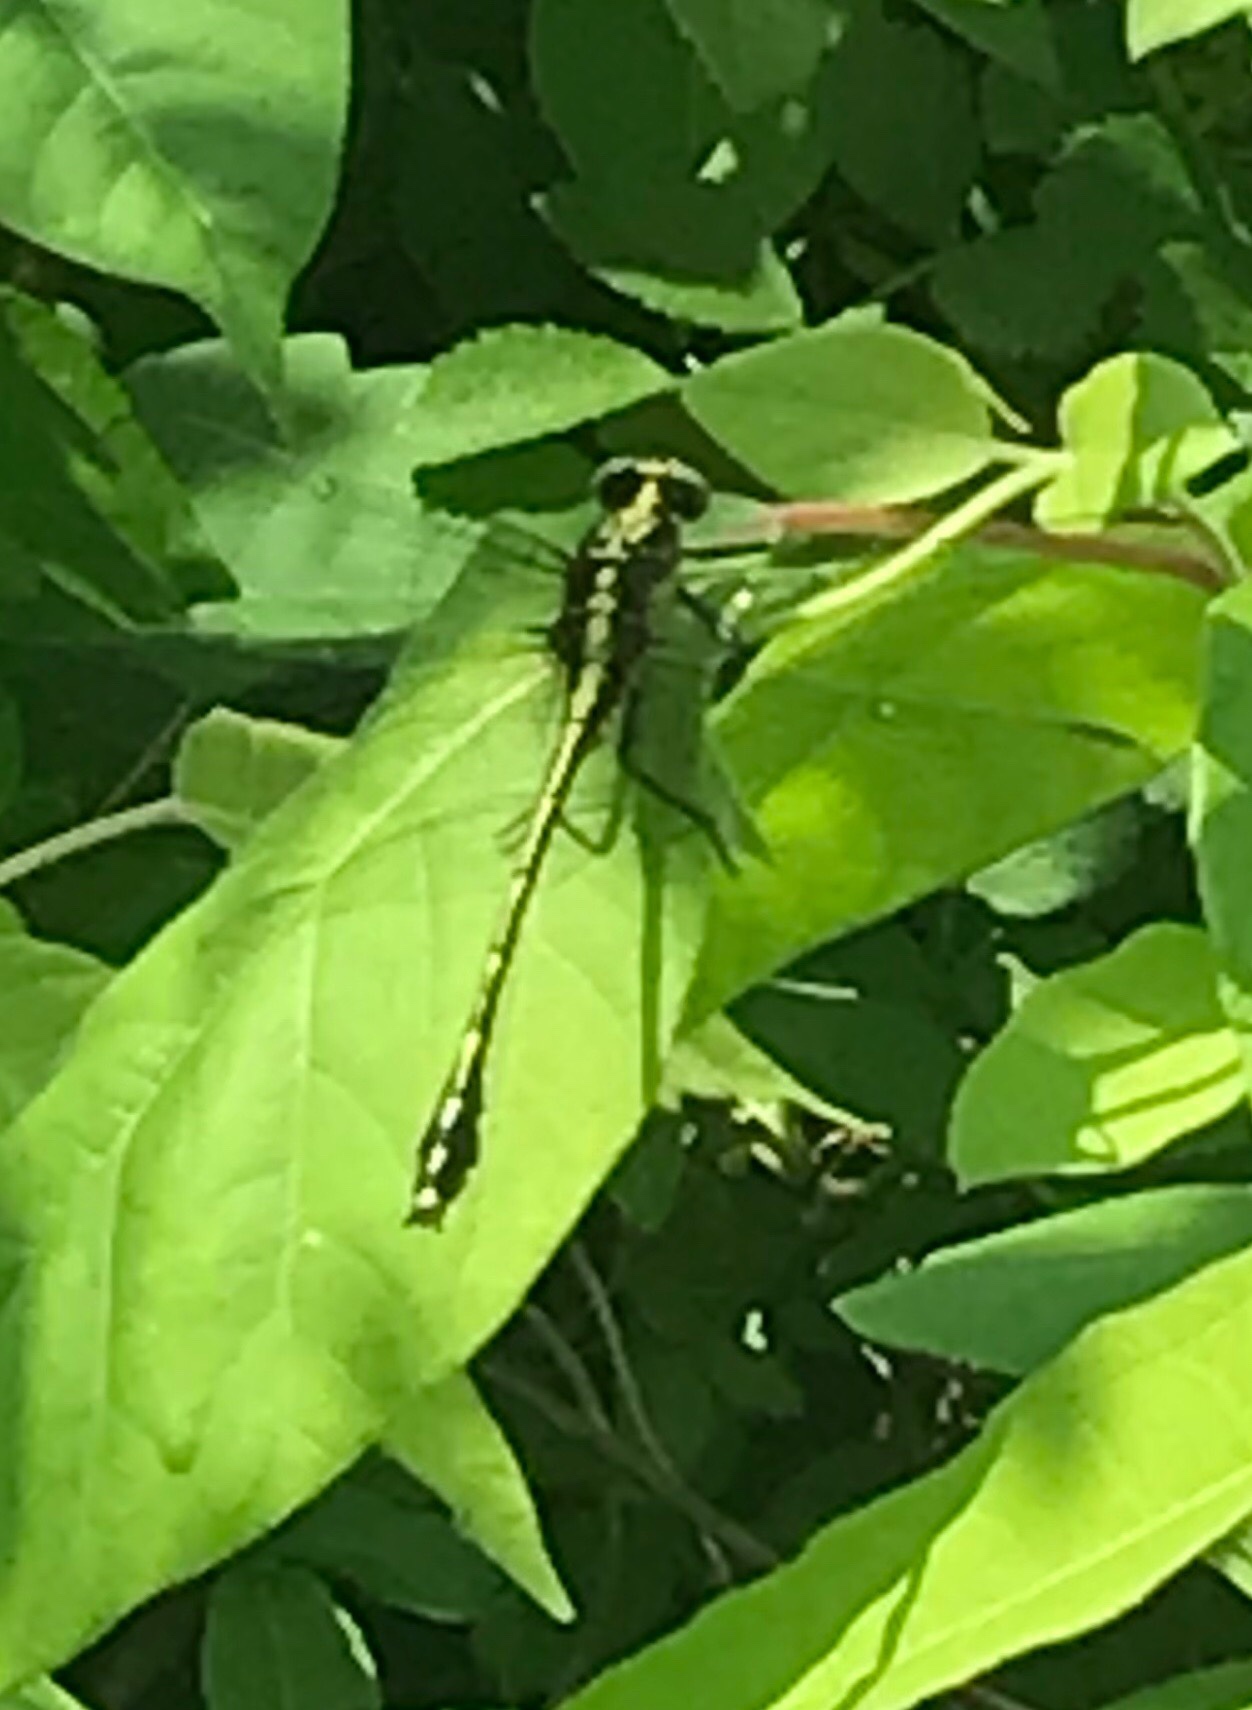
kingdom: Animalia
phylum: Arthropoda
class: Insecta
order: Odonata
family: Gomphidae
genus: Dromogomphus
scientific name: Dromogomphus spinosus
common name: Black-shouldered spinyleg
